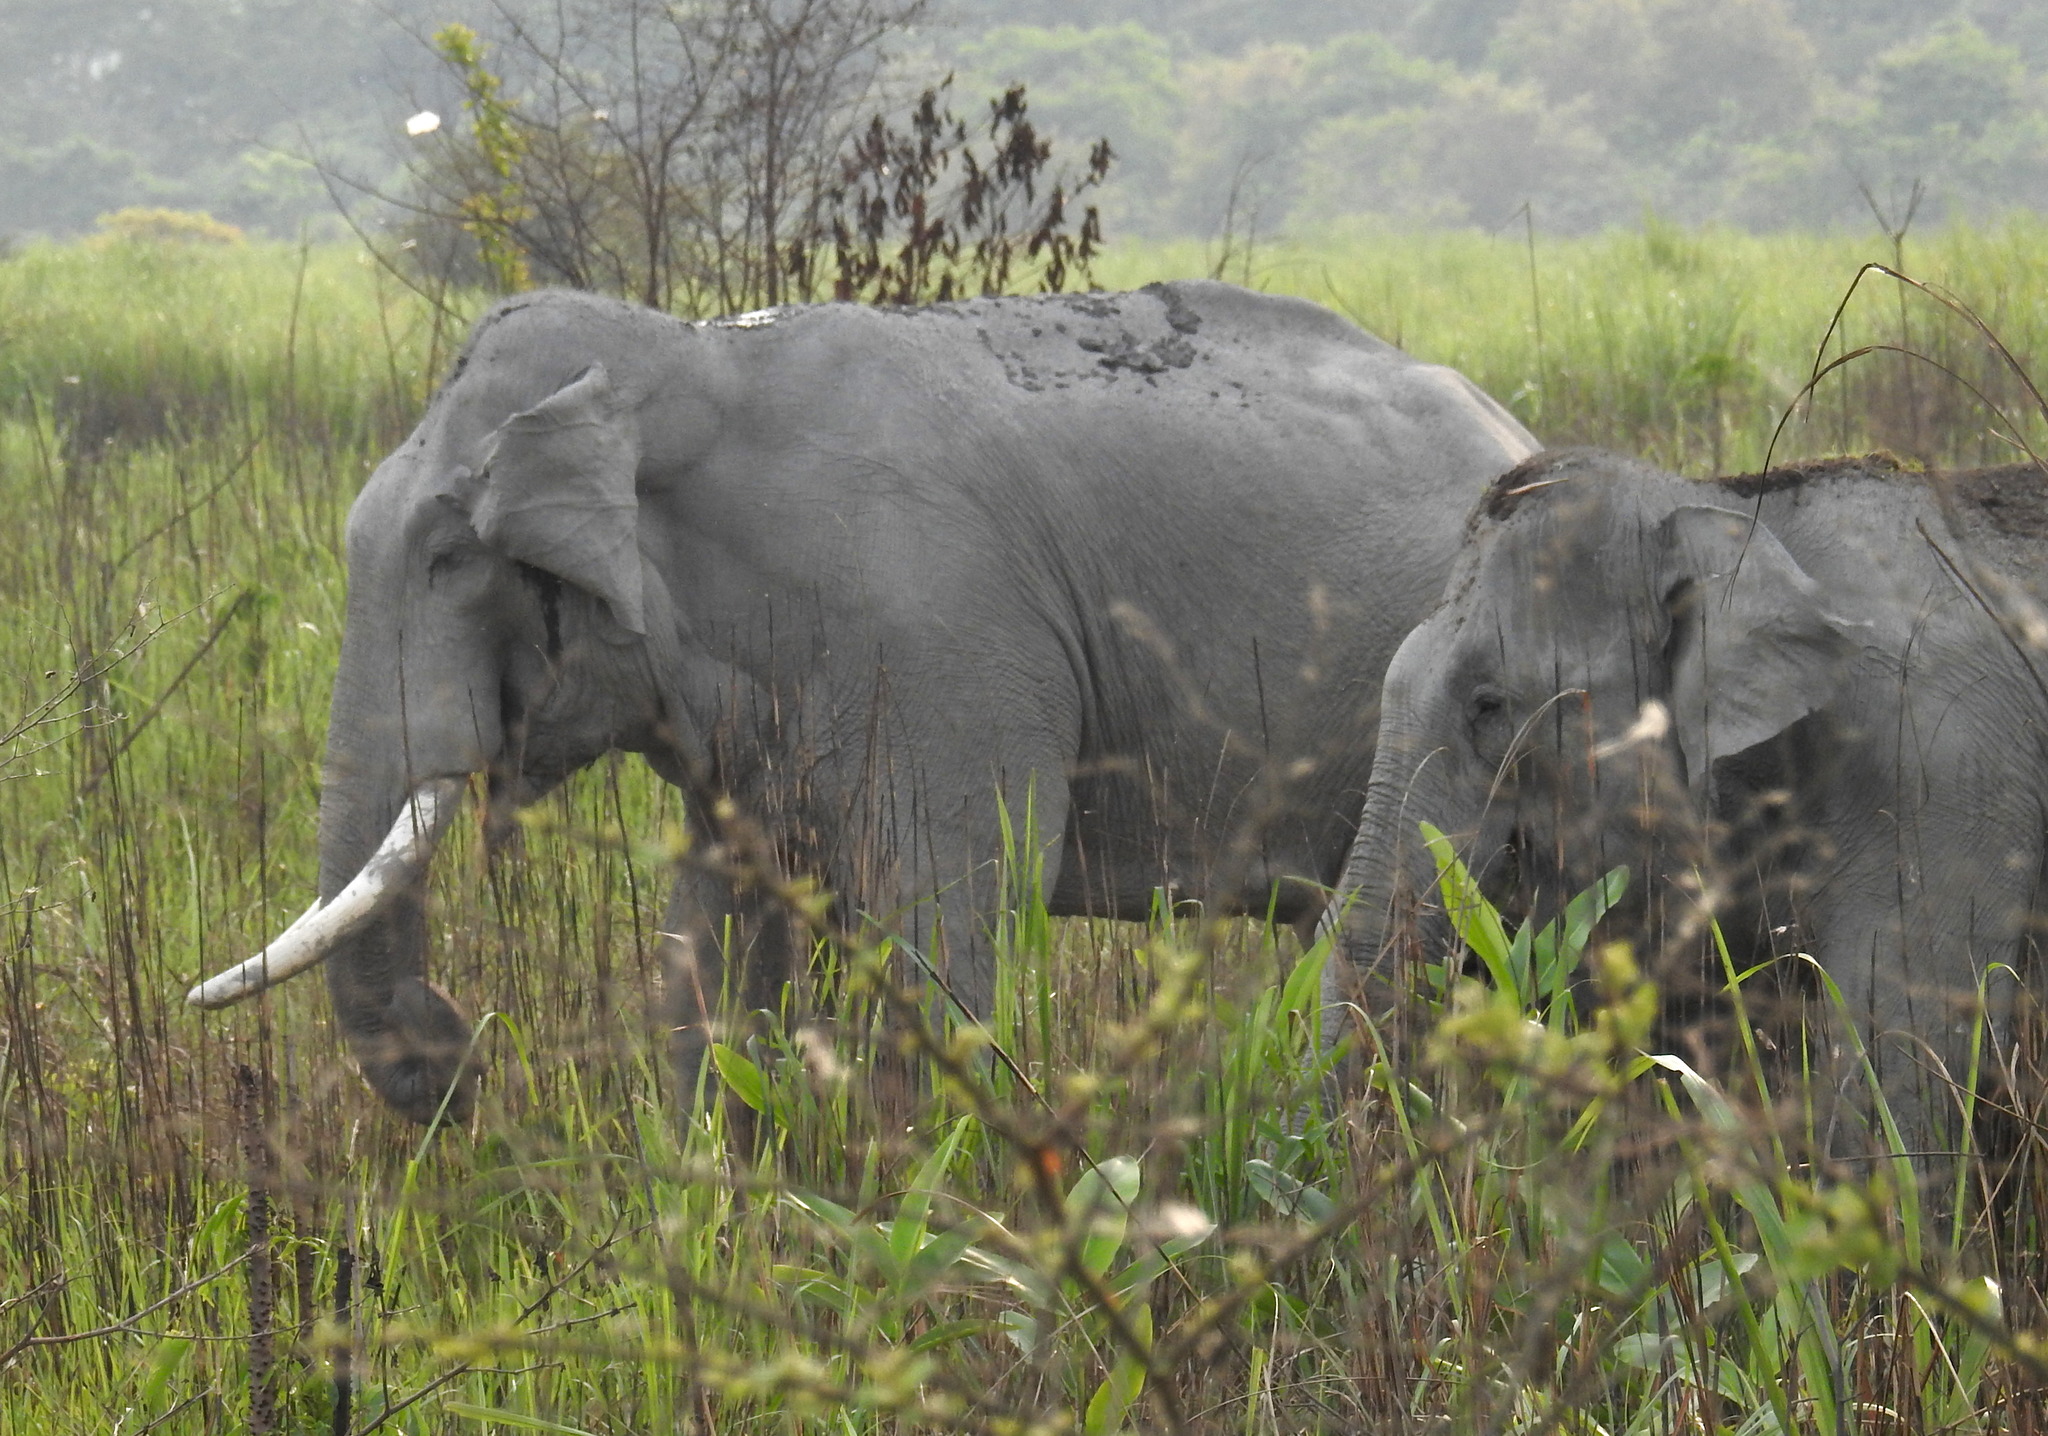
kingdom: Animalia
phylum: Chordata
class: Mammalia
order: Proboscidea
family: Elephantidae
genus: Elephas
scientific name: Elephas maximus
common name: Asian elephant
